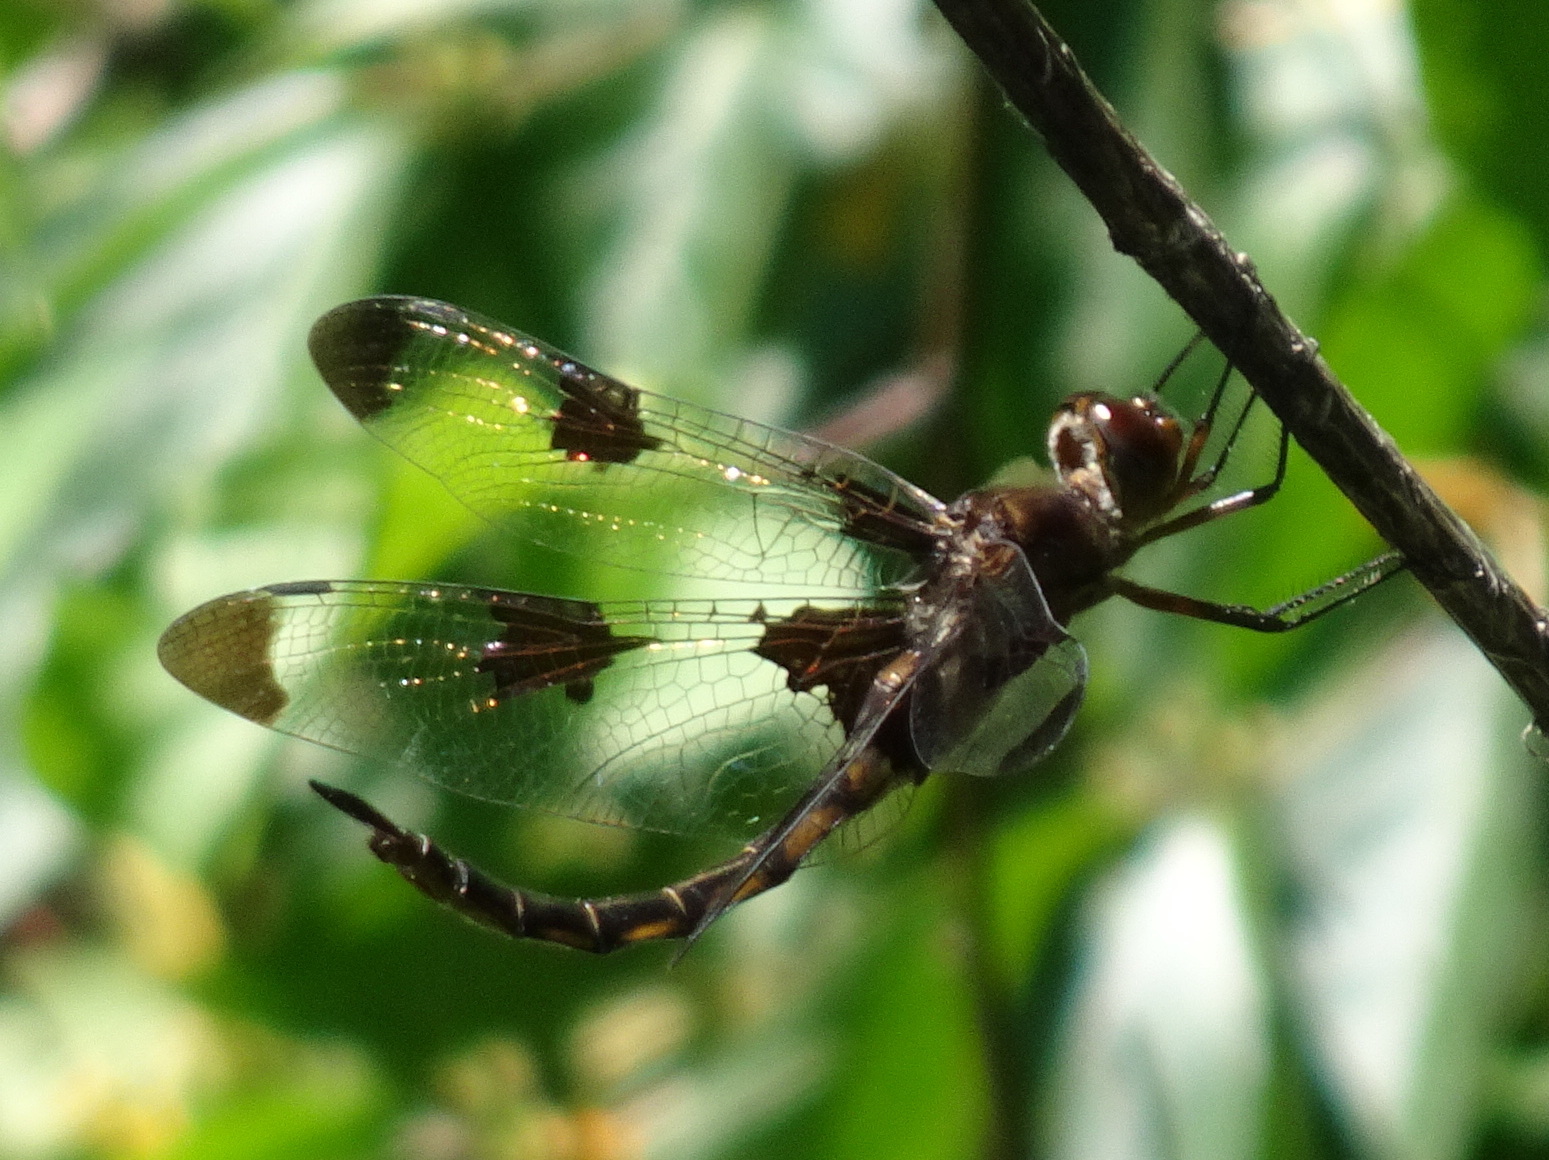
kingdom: Animalia
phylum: Arthropoda
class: Insecta
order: Odonata
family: Corduliidae
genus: Epitheca
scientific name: Epitheca princeps
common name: Prince baskettail
